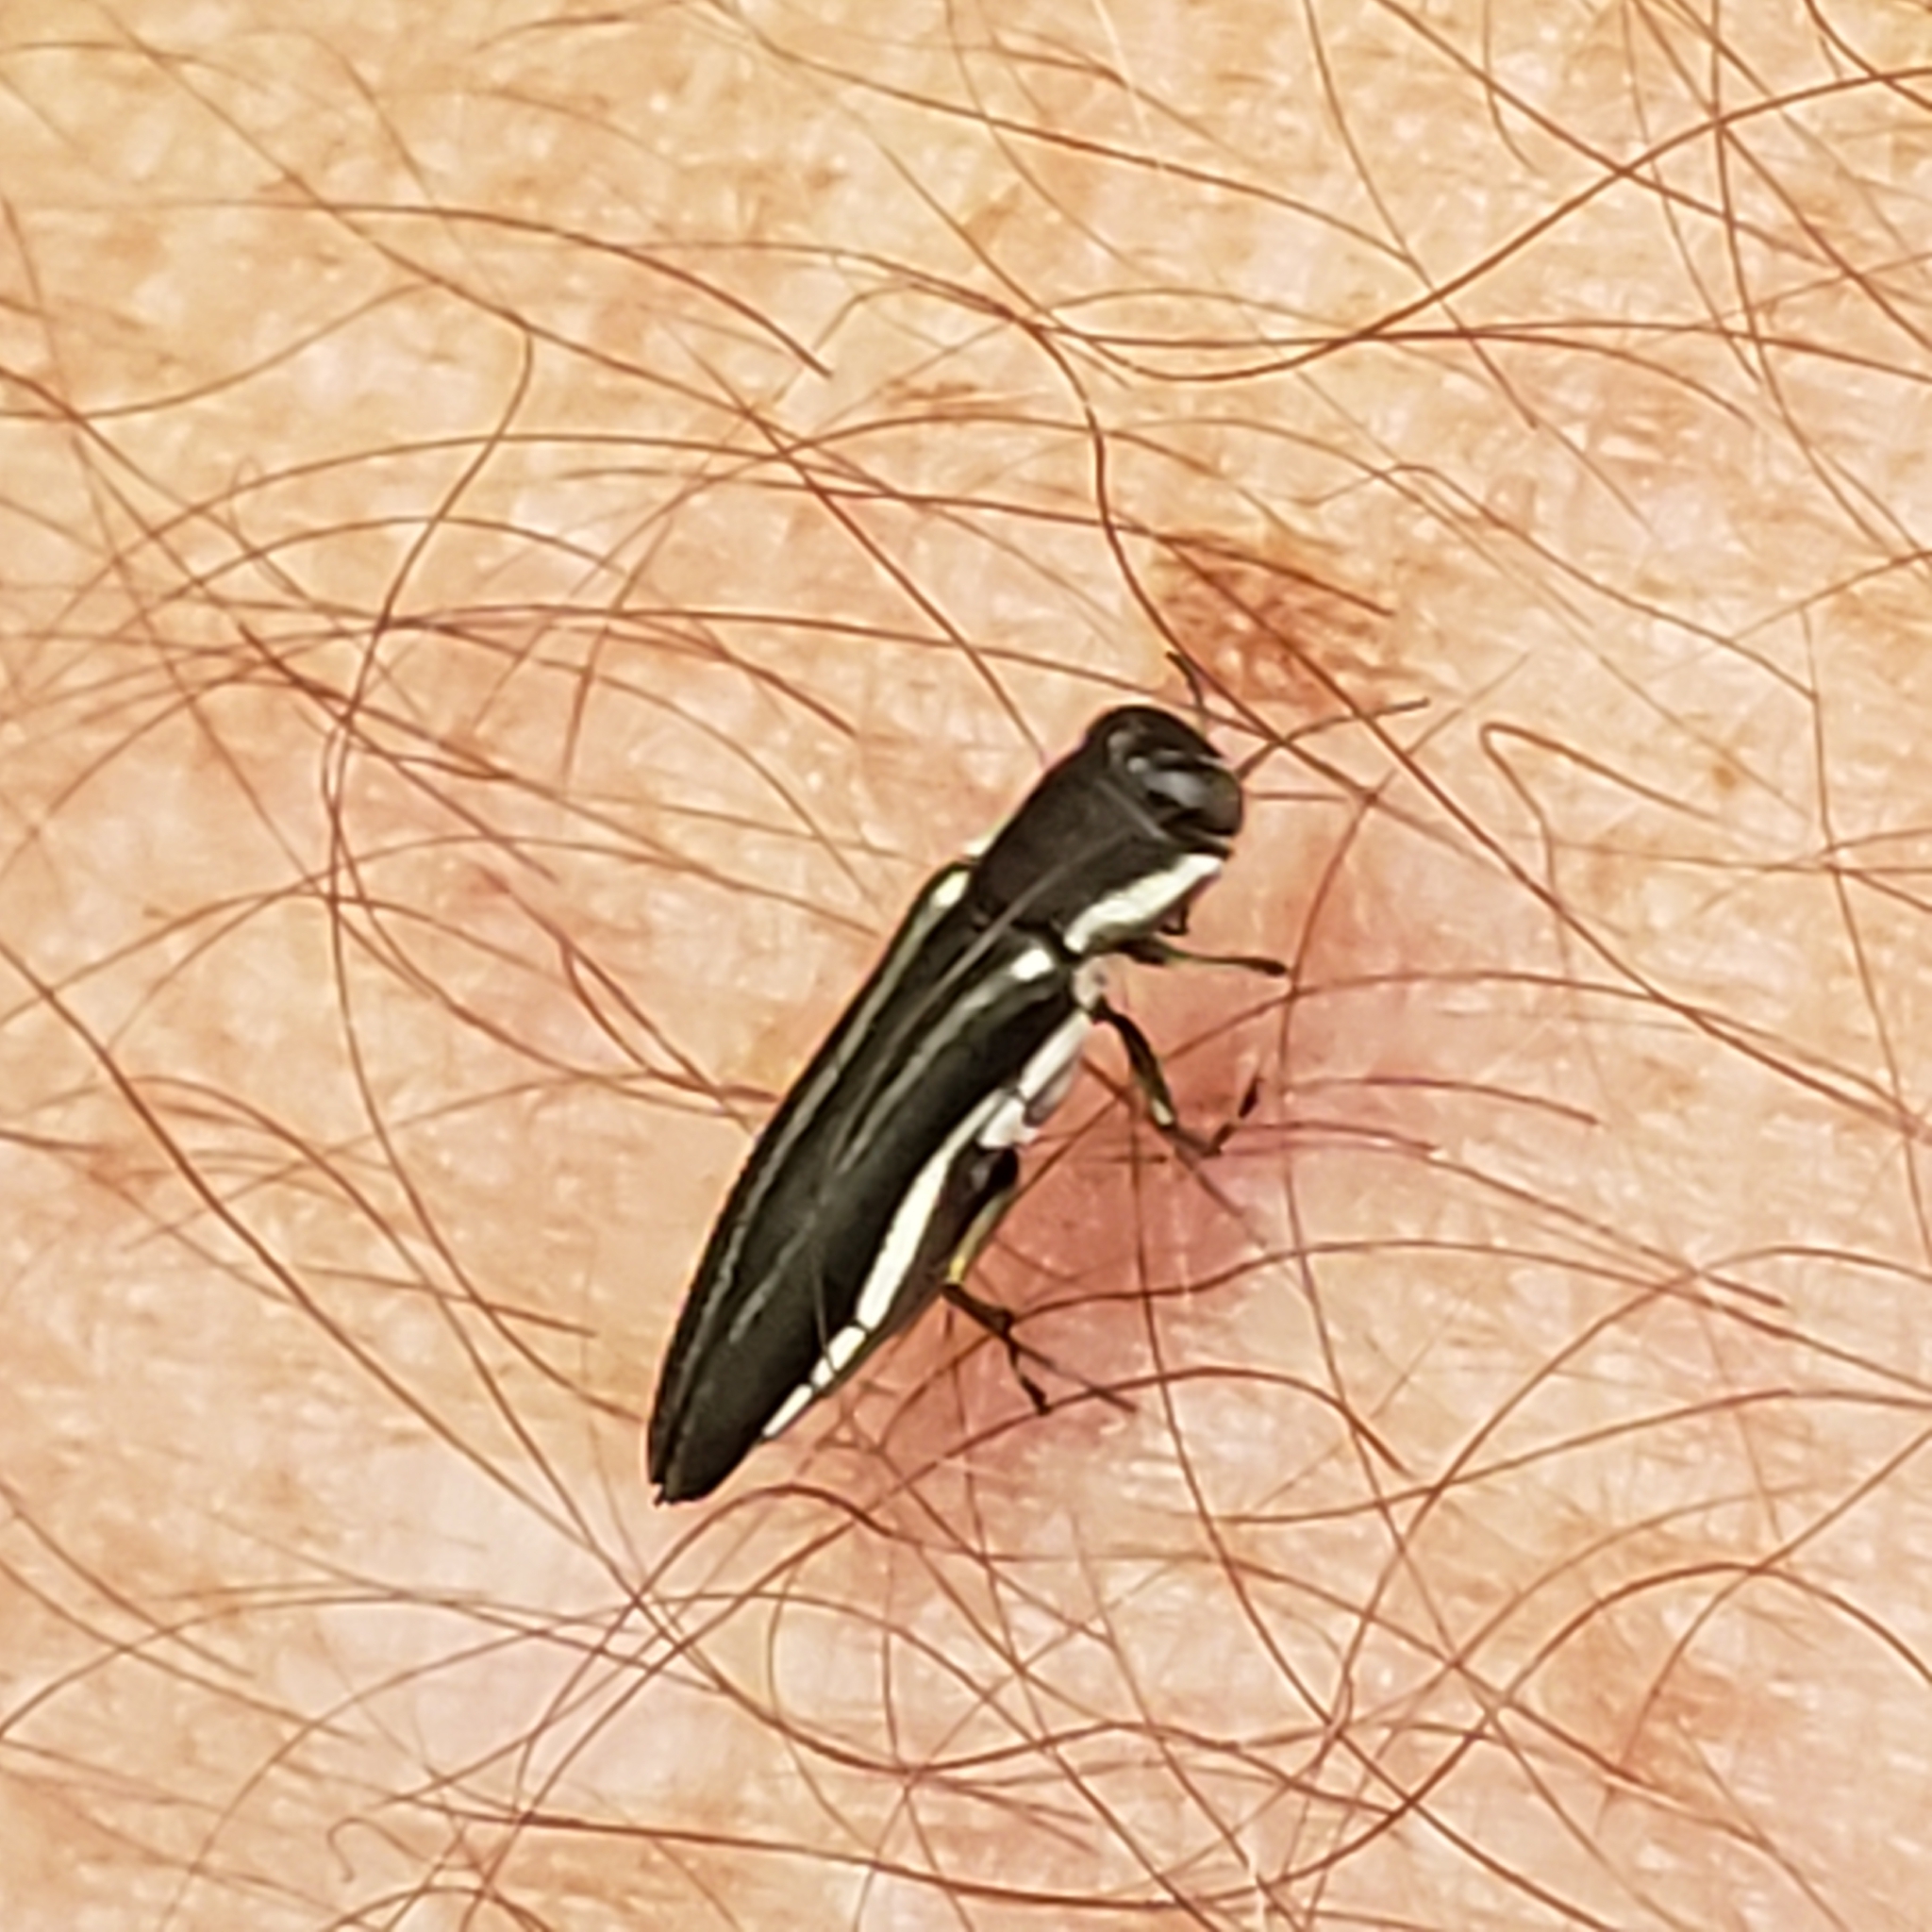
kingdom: Animalia
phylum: Arthropoda
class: Insecta
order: Coleoptera
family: Buprestidae
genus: Agrilus
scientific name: Agrilus bilineatus
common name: Two-lined chestnut borer
